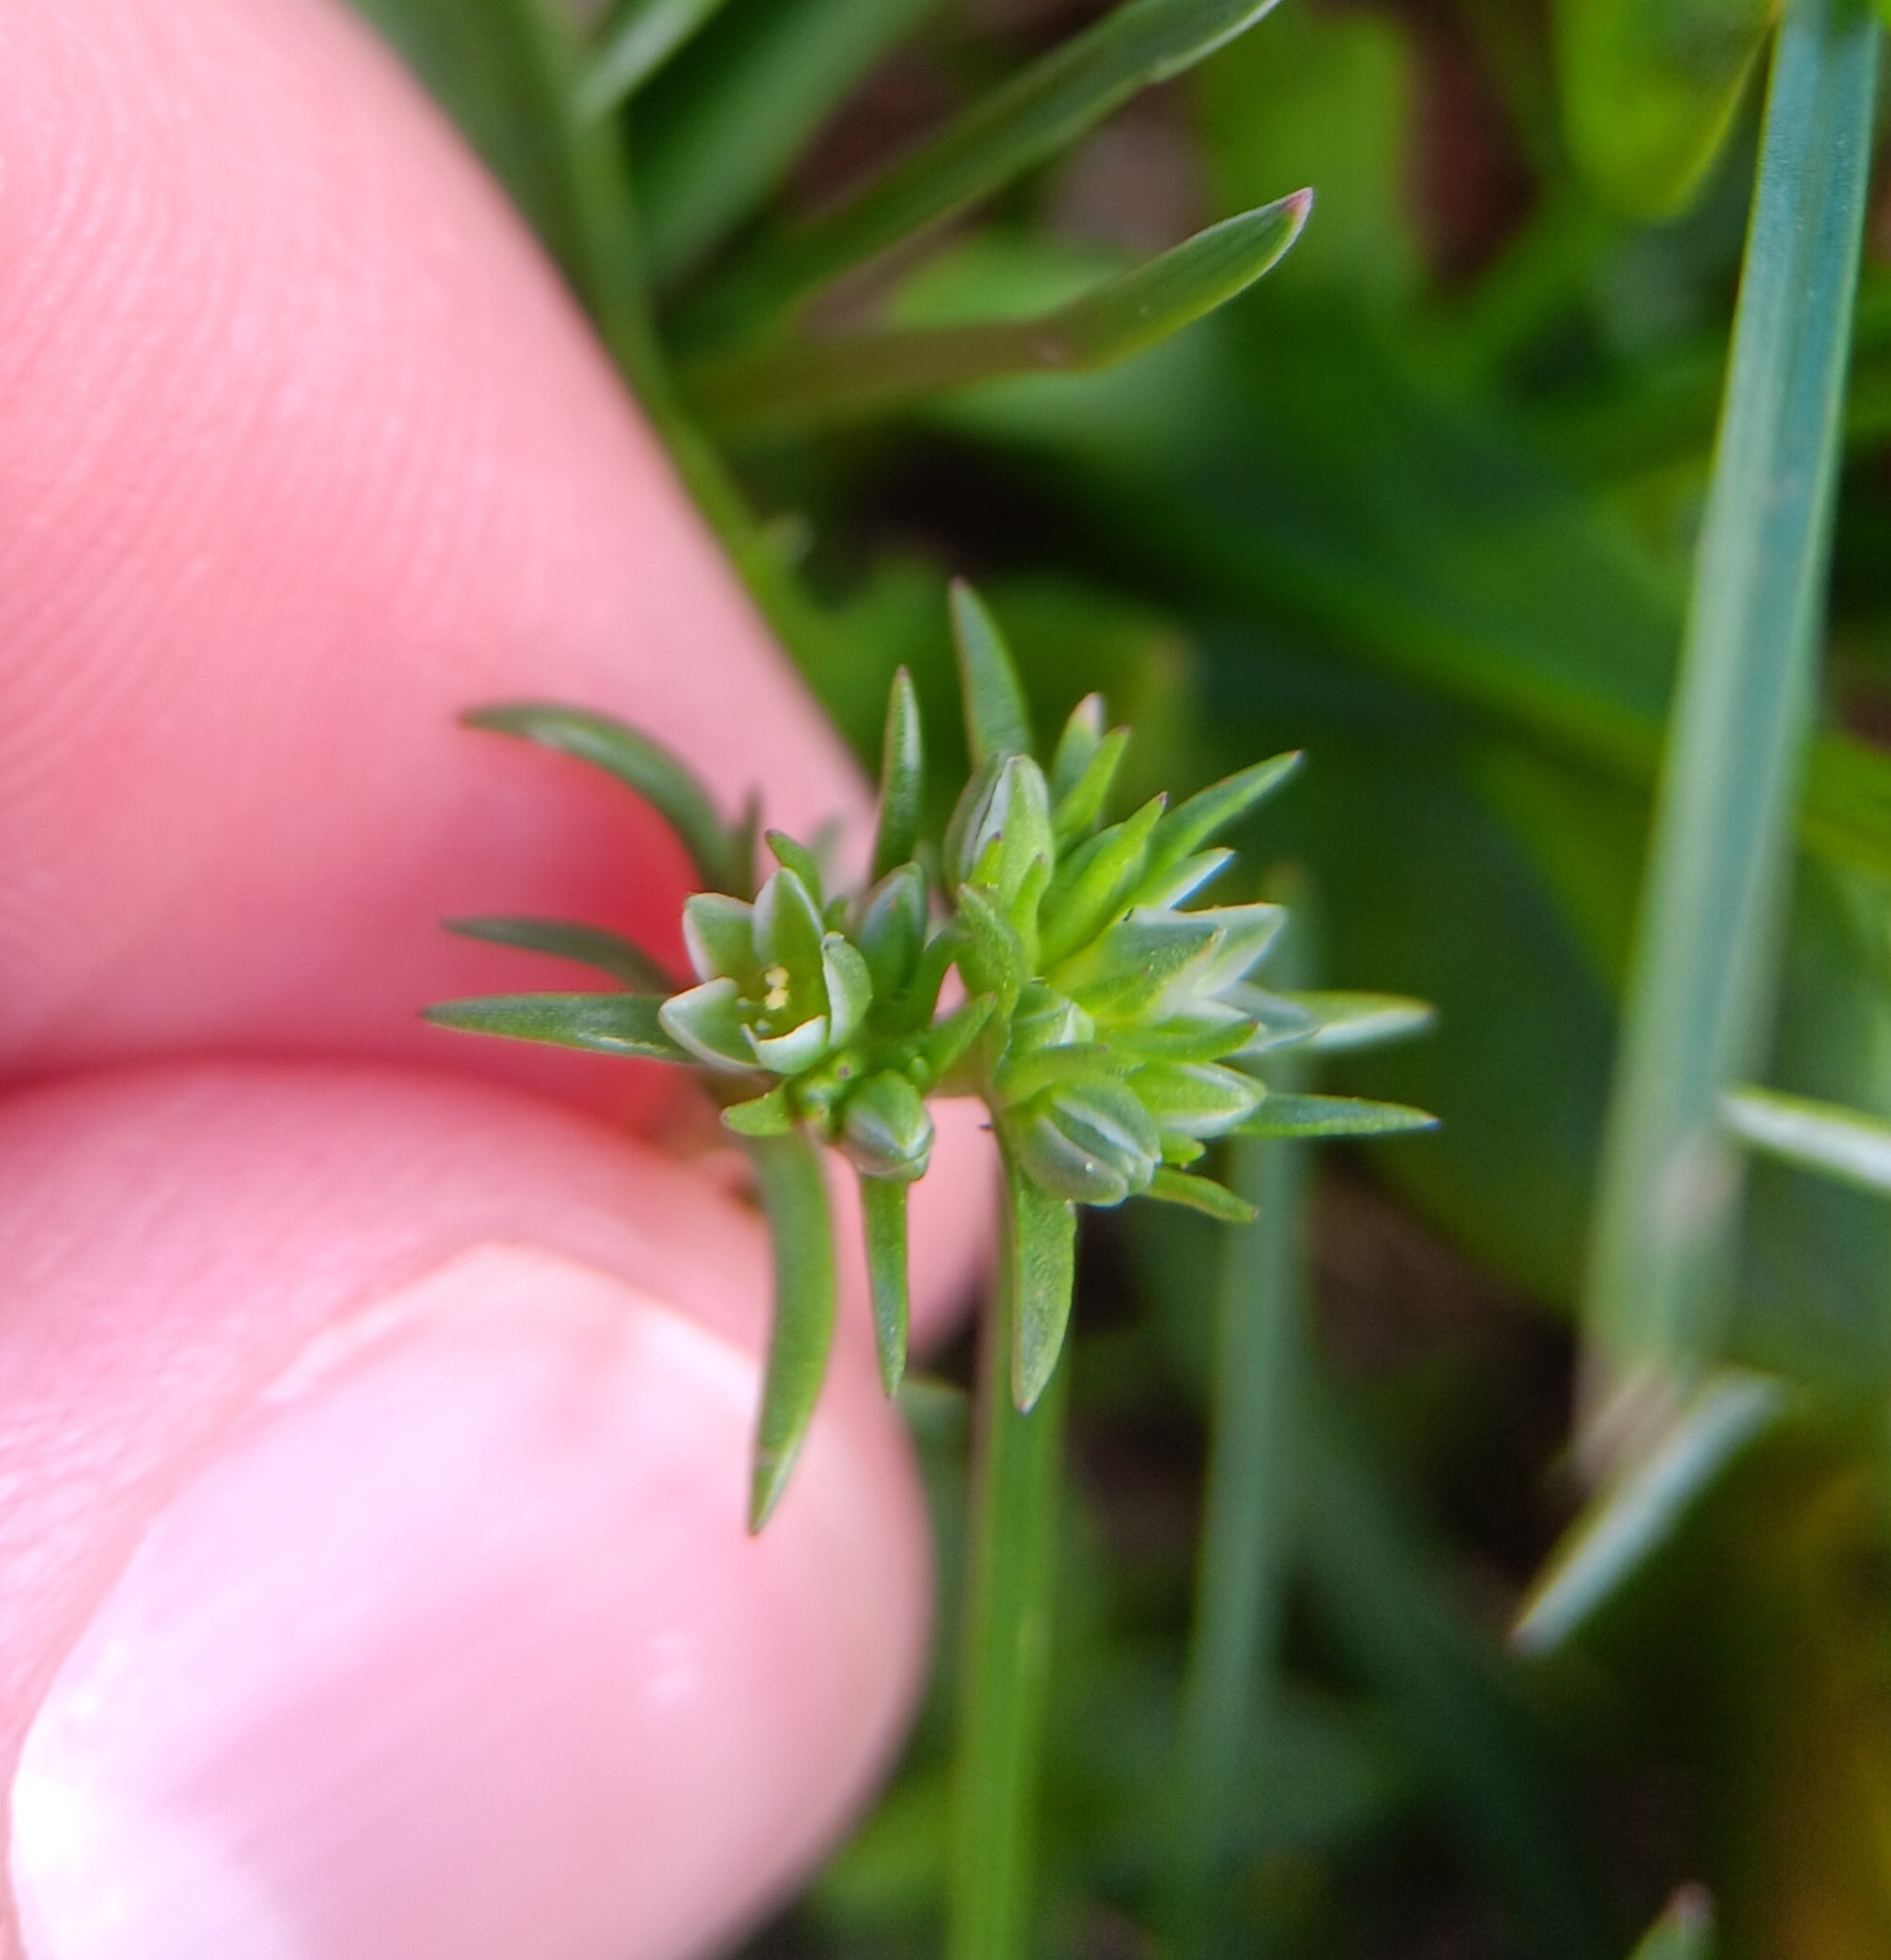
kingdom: Plantae
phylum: Tracheophyta
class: Magnoliopsida
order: Caryophyllales
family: Caryophyllaceae
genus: Scleranthus
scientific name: Scleranthus annuus
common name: Annual knawel
